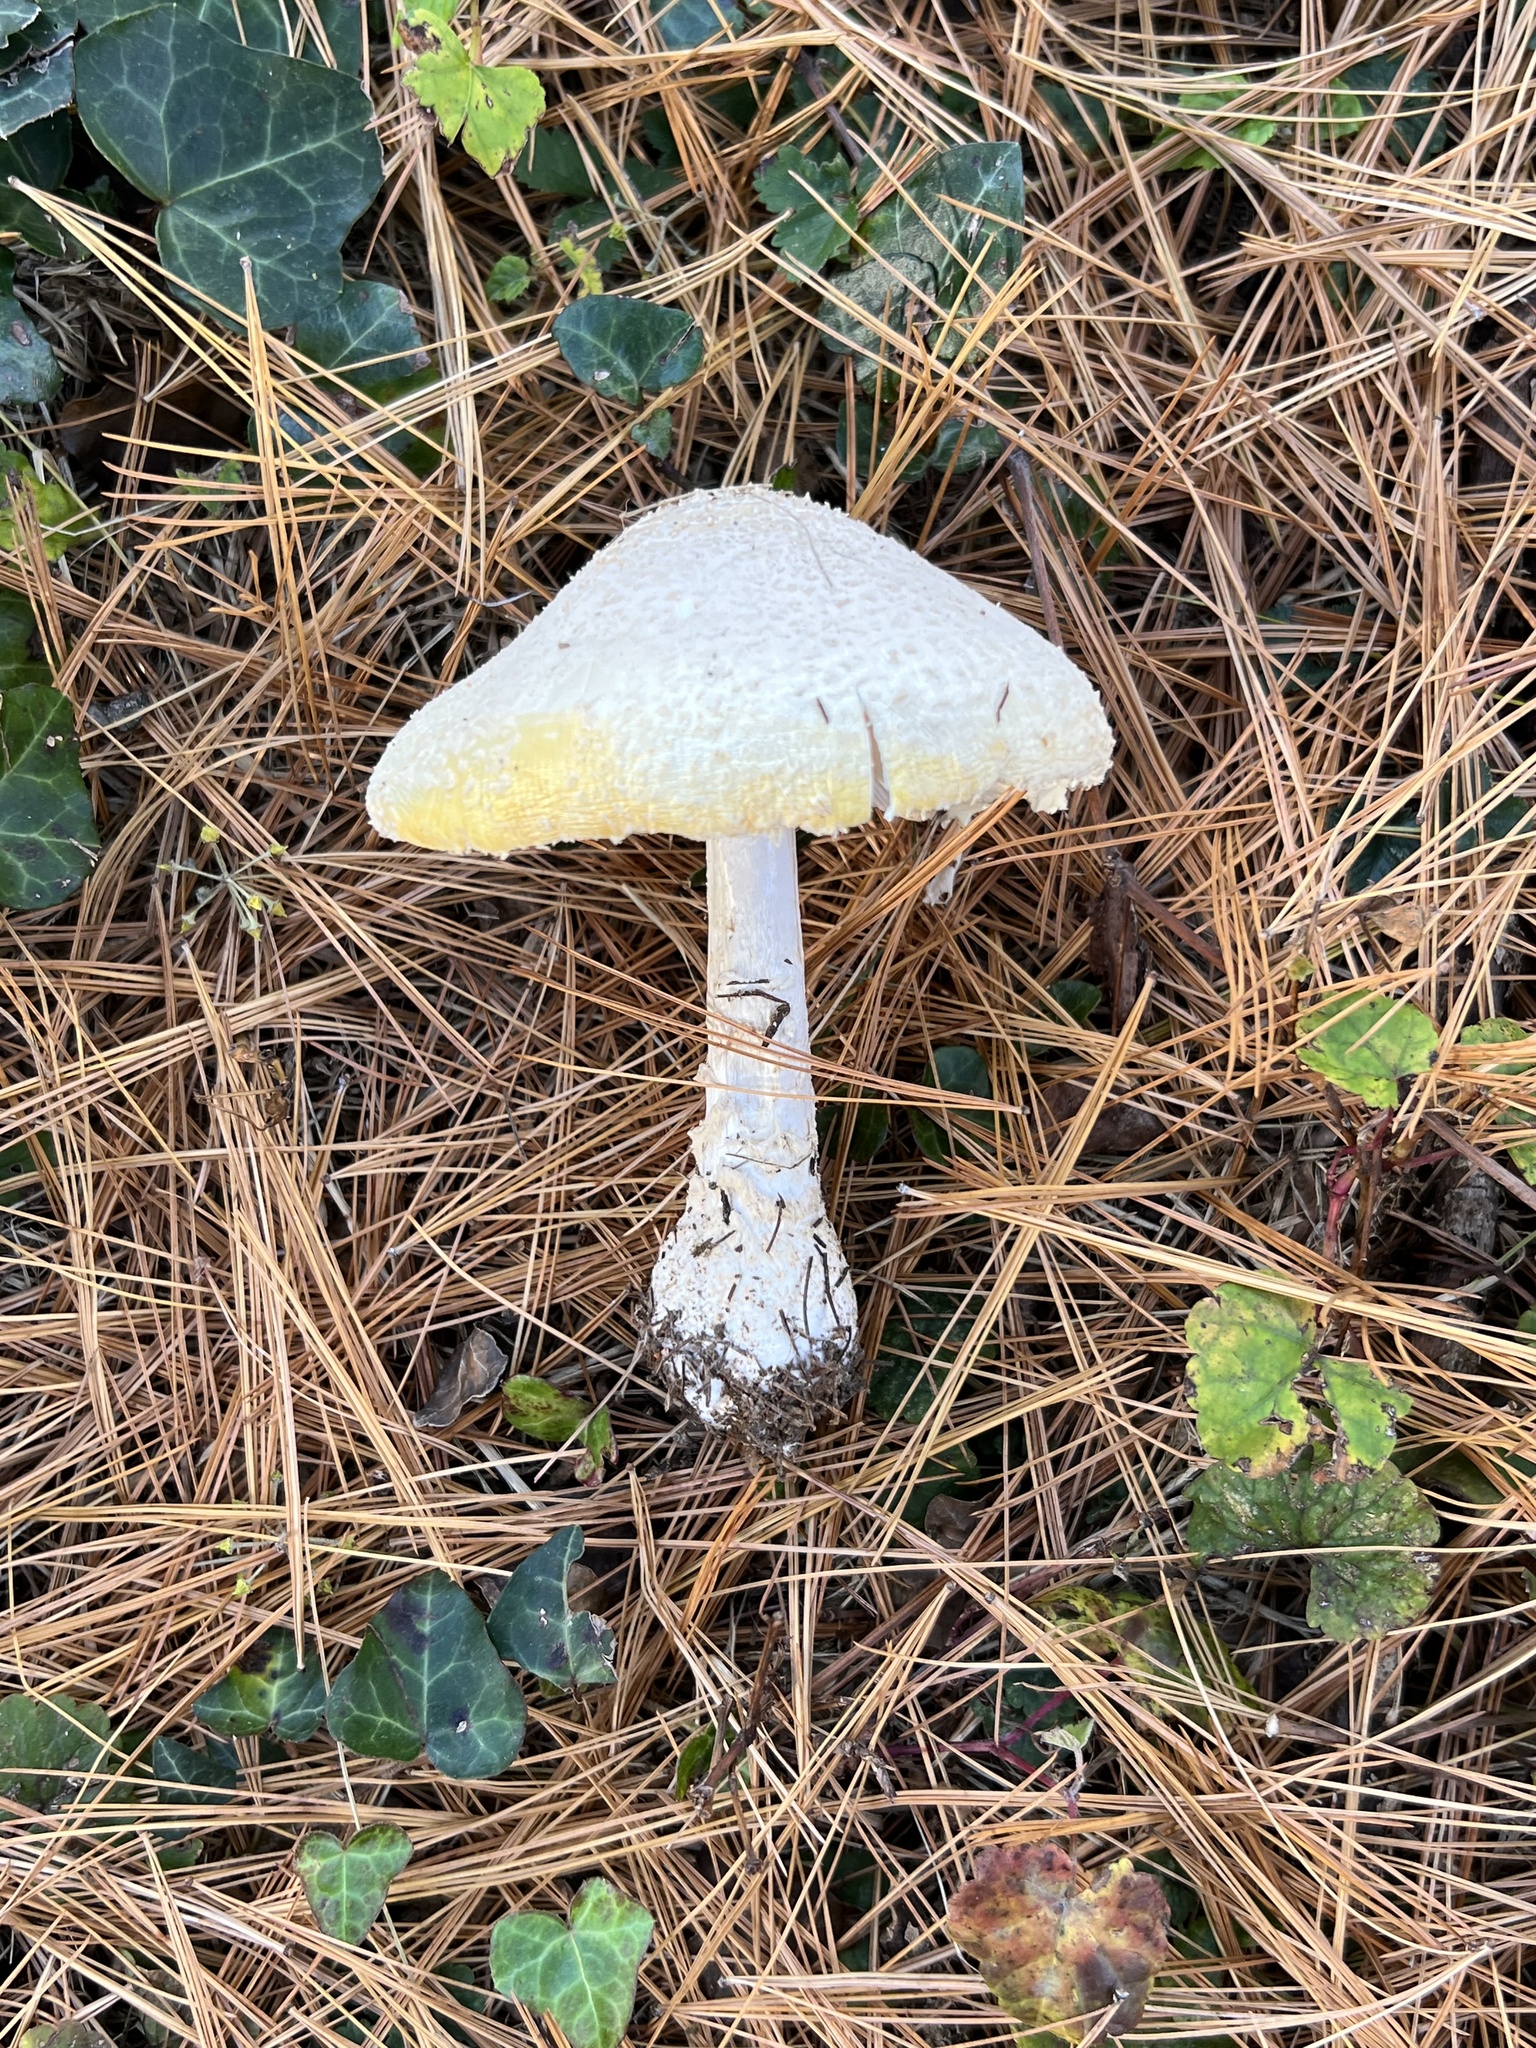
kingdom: Fungi
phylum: Basidiomycota
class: Agaricomycetes
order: Agaricales
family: Amanitaceae
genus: Amanita
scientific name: Amanita muscaria
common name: Fly agaric
